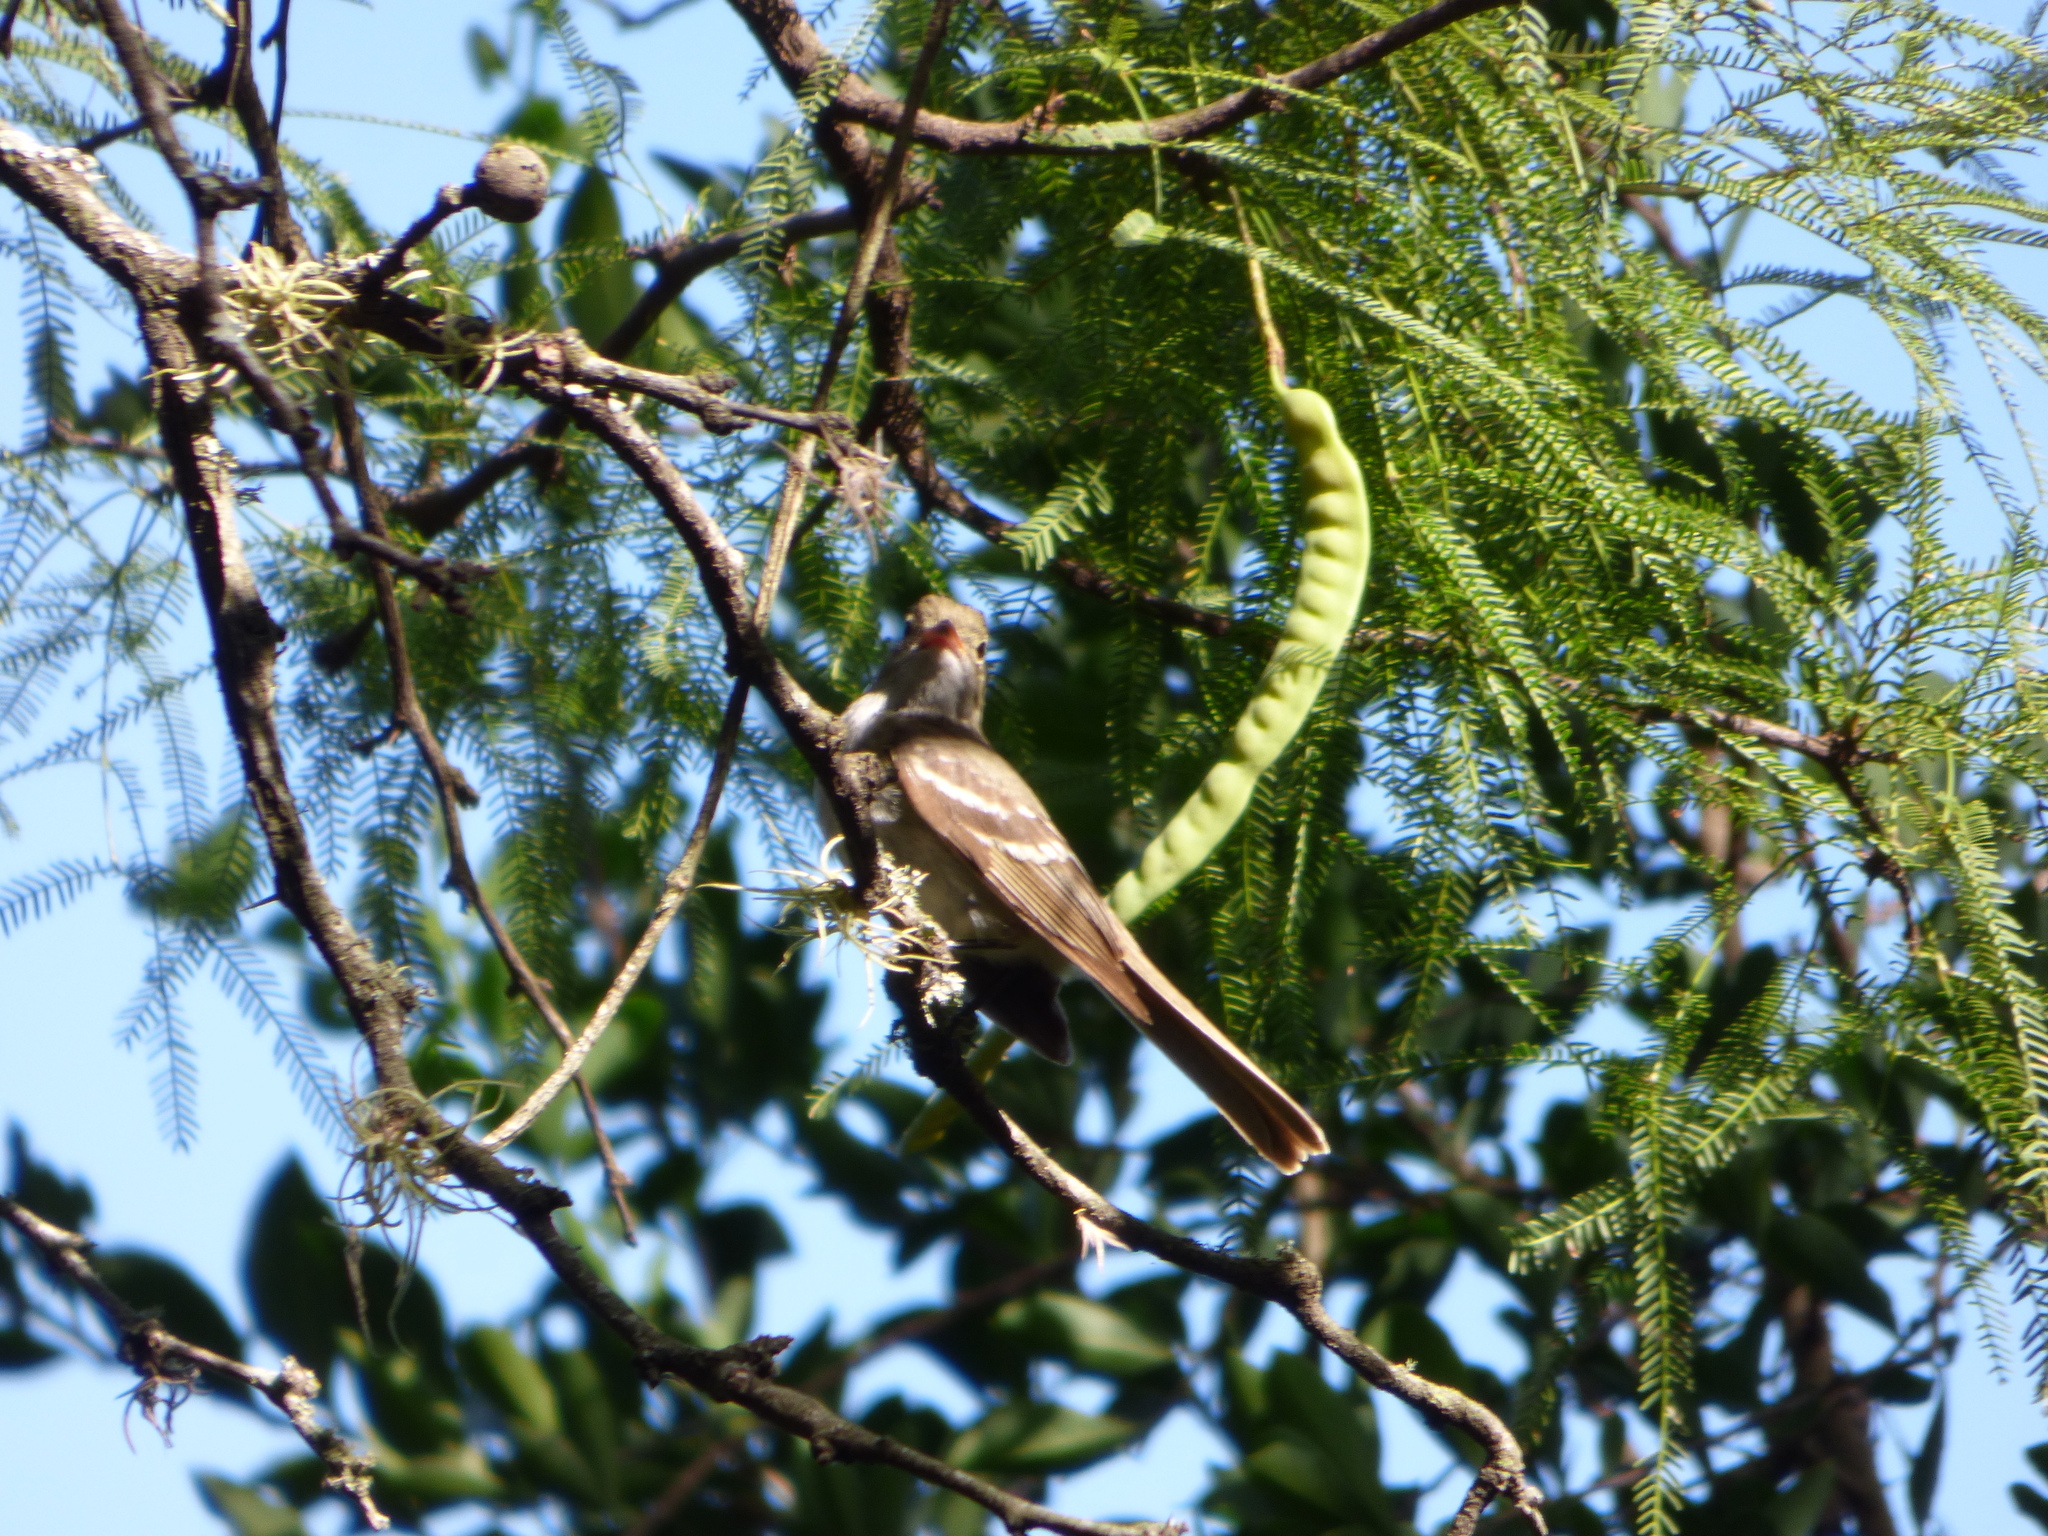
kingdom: Animalia
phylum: Chordata
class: Aves
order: Passeriformes
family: Tyrannidae
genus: Elaenia
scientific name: Elaenia spectabilis
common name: Large elaenia
